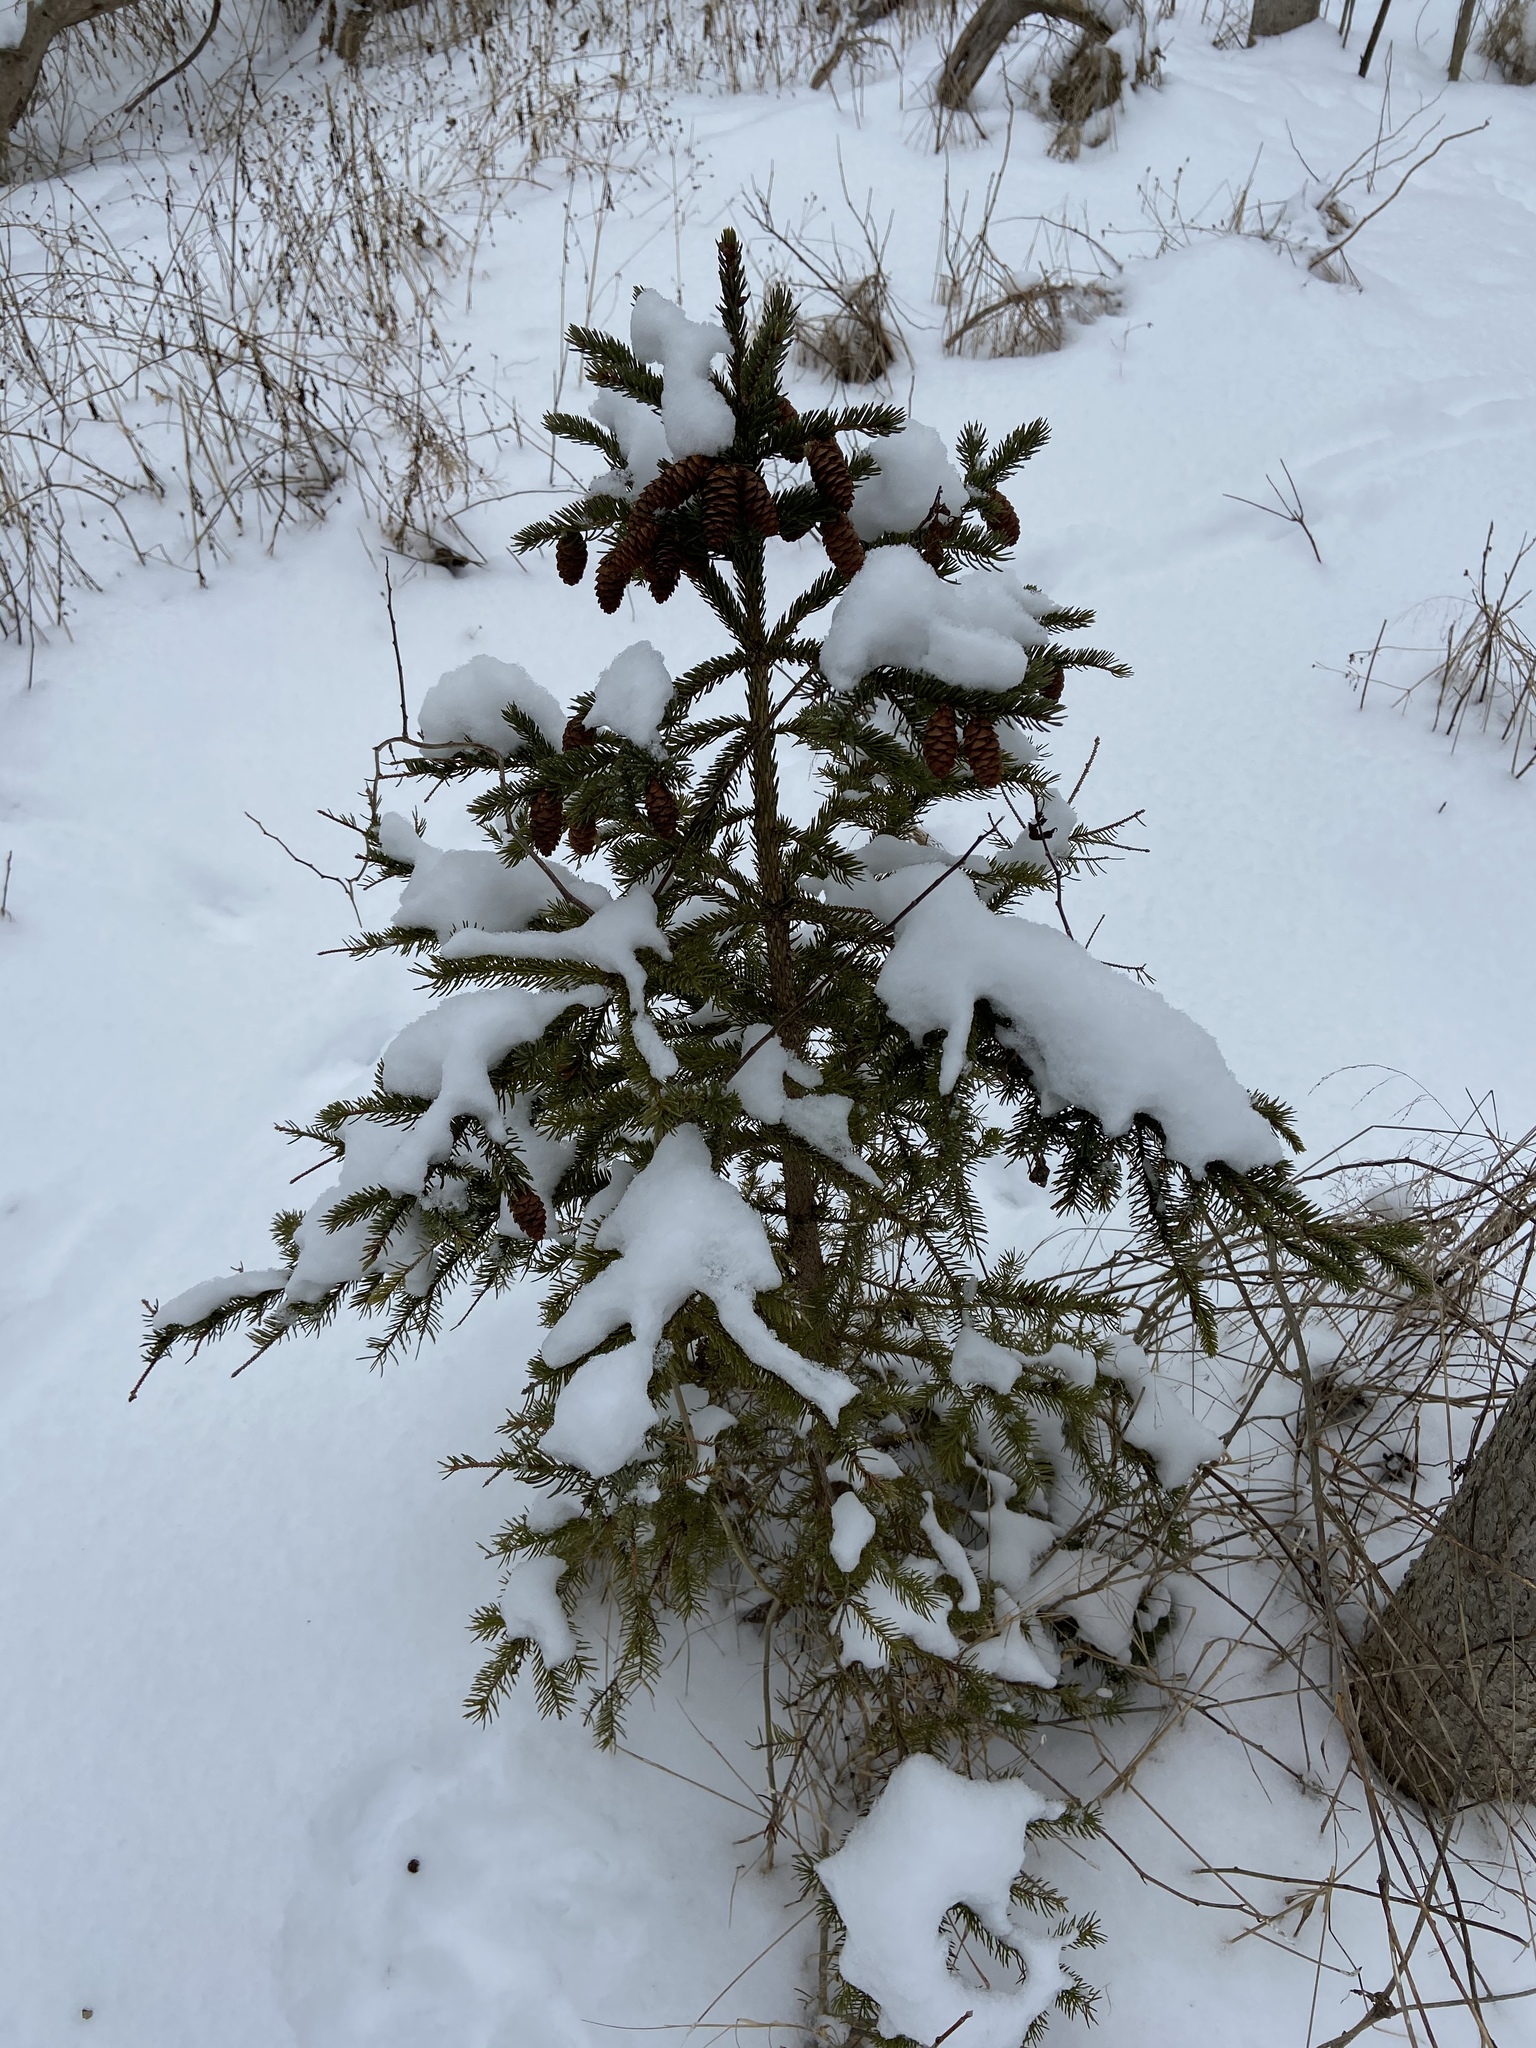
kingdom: Plantae
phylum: Tracheophyta
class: Pinopsida
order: Pinales
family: Pinaceae
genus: Picea
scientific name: Picea glauca
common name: White spruce
